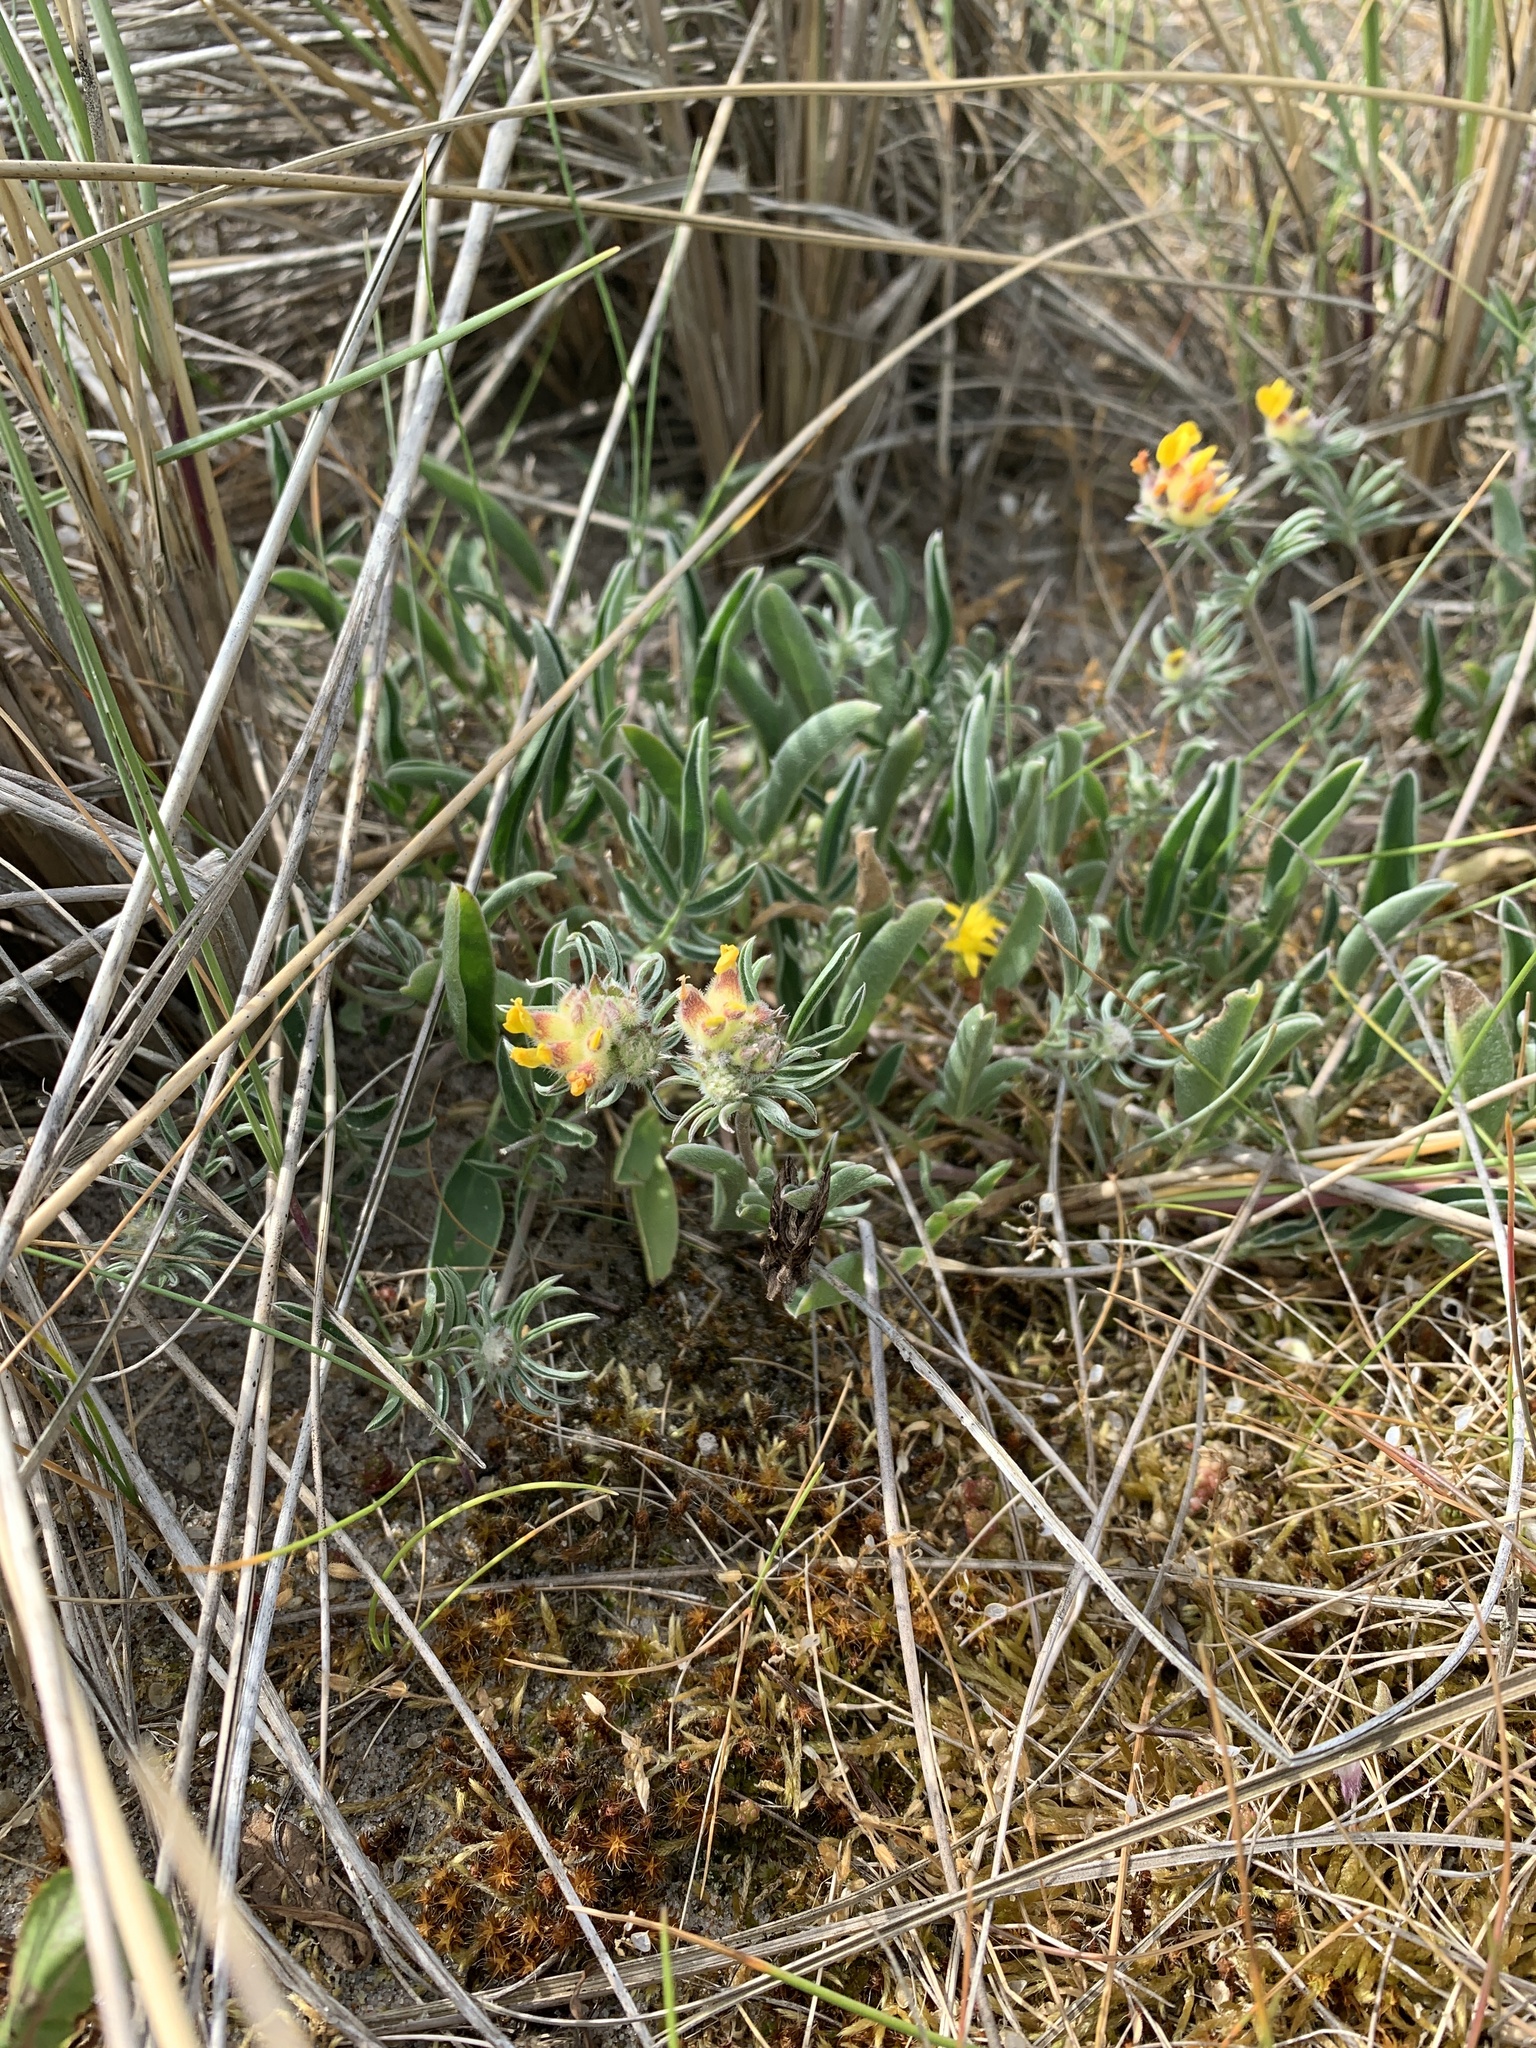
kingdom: Plantae
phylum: Tracheophyta
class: Magnoliopsida
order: Fabales
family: Fabaceae
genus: Anthyllis
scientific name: Anthyllis vulneraria
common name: Kidney vetch
